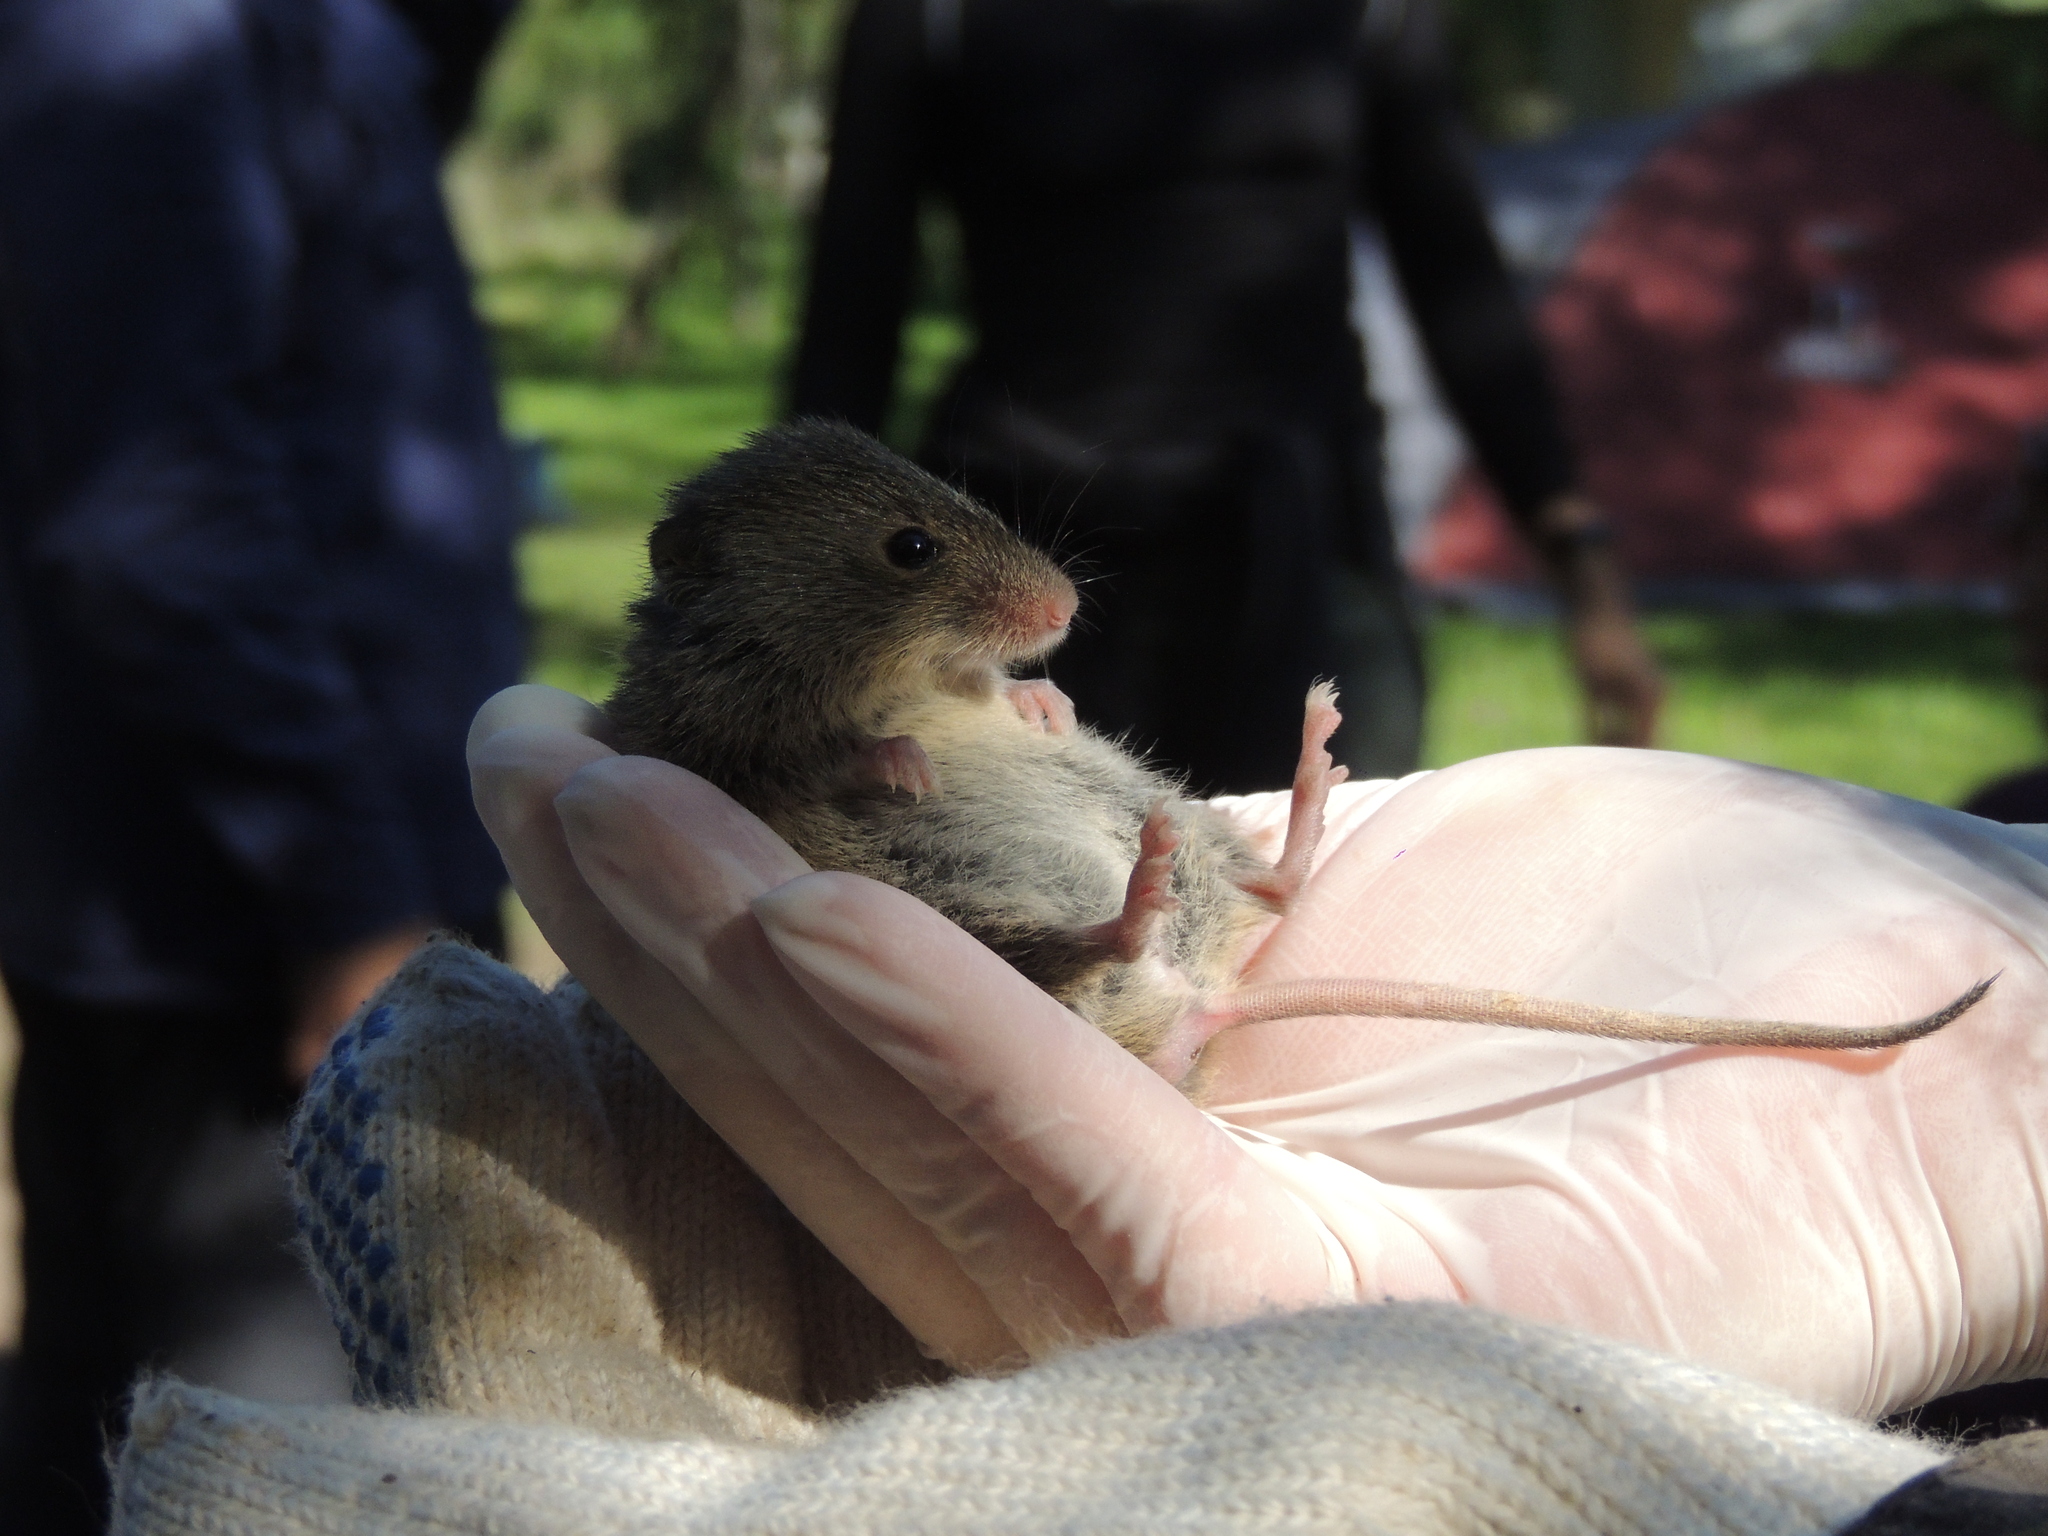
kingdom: Animalia
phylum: Chordata
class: Mammalia
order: Rodentia
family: Cricetidae
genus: Akodon
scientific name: Akodon azarae
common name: Azara's grass mouse
